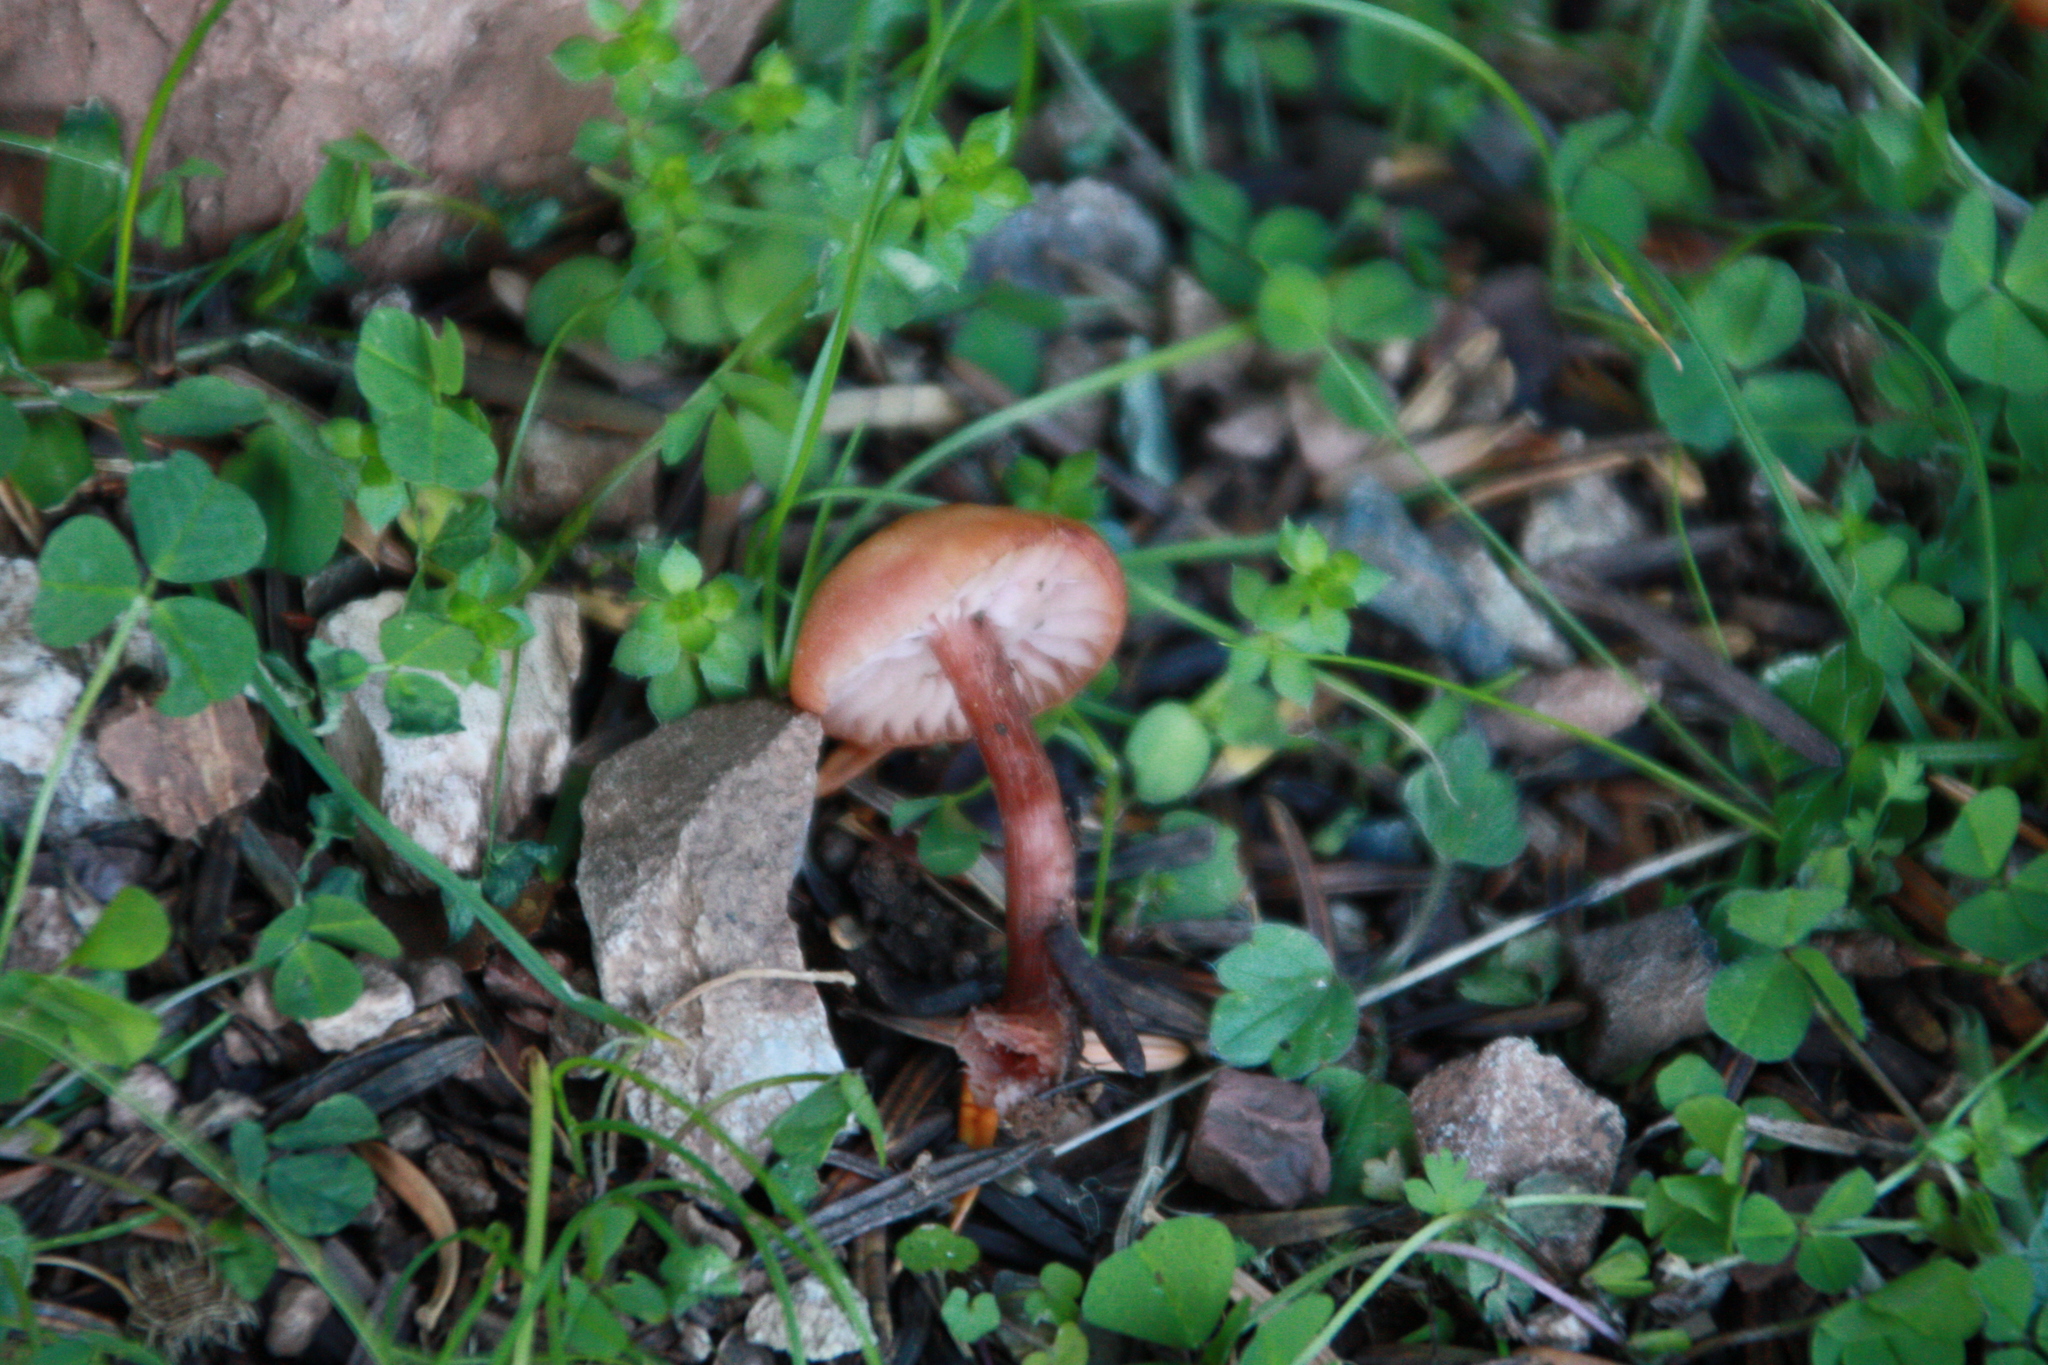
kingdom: Fungi
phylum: Basidiomycota
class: Agaricomycetes
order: Agaricales
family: Hydnangiaceae
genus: Laccaria
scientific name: Laccaria laccata
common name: Deceiver
